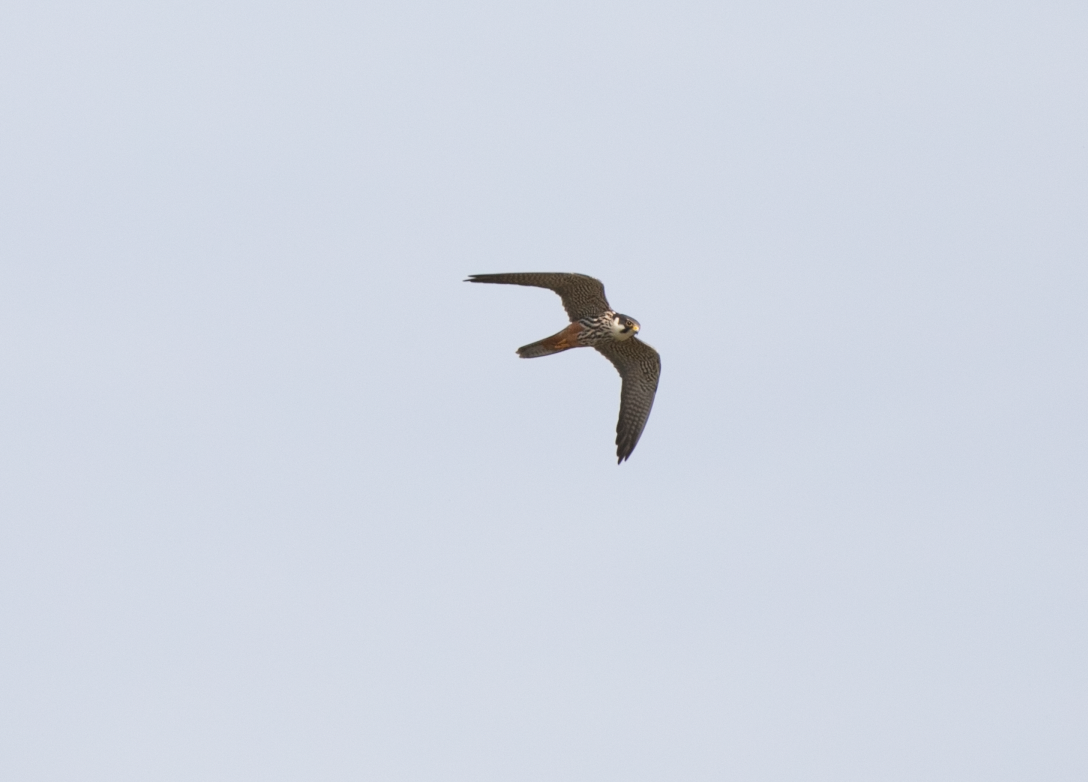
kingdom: Animalia
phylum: Chordata
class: Aves
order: Falconiformes
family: Falconidae
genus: Falco
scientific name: Falco subbuteo
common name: Eurasian hobby
